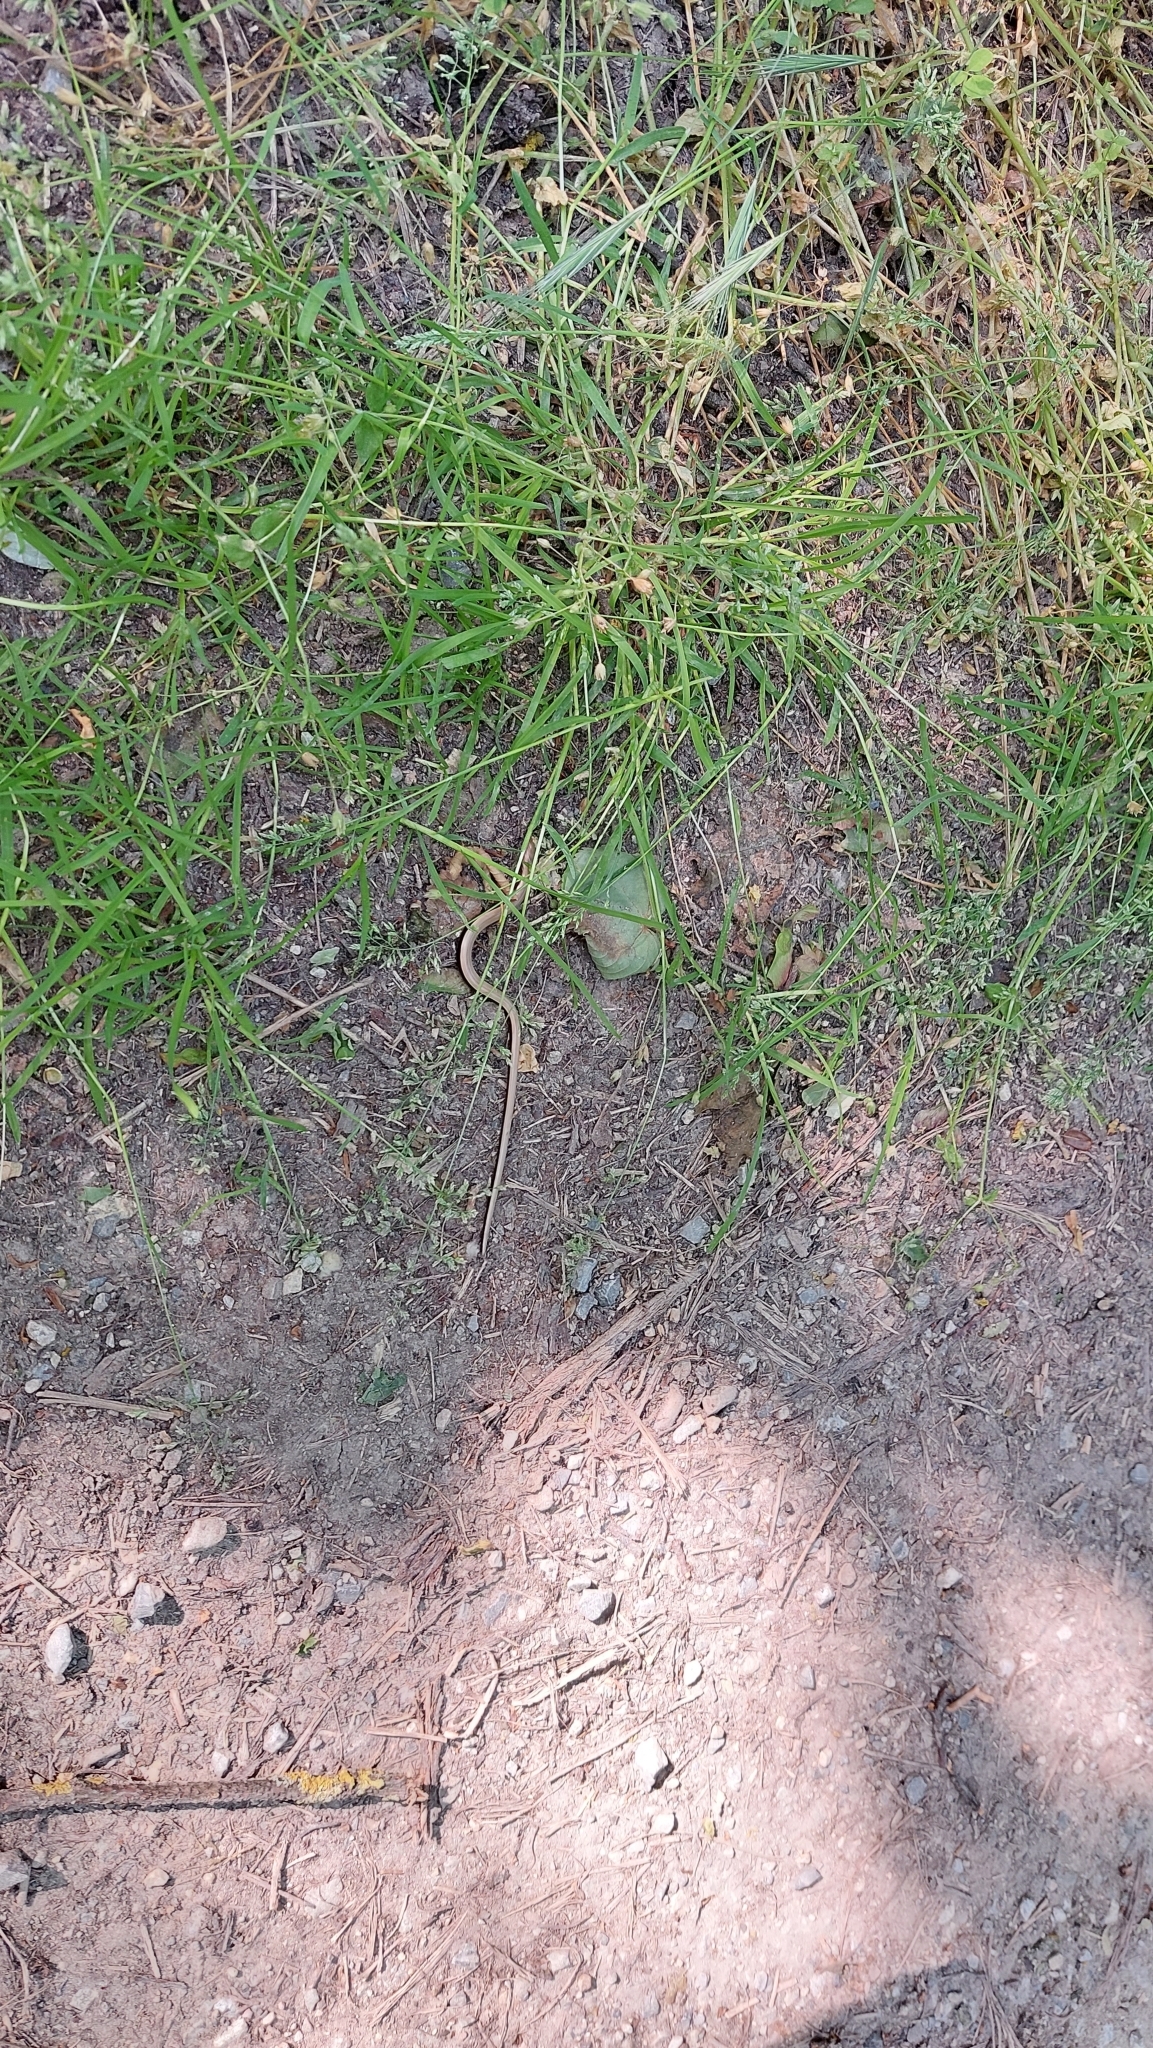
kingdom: Animalia
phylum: Chordata
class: Squamata
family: Anguidae
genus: Anguis
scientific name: Anguis fragilis
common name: Slow worm
